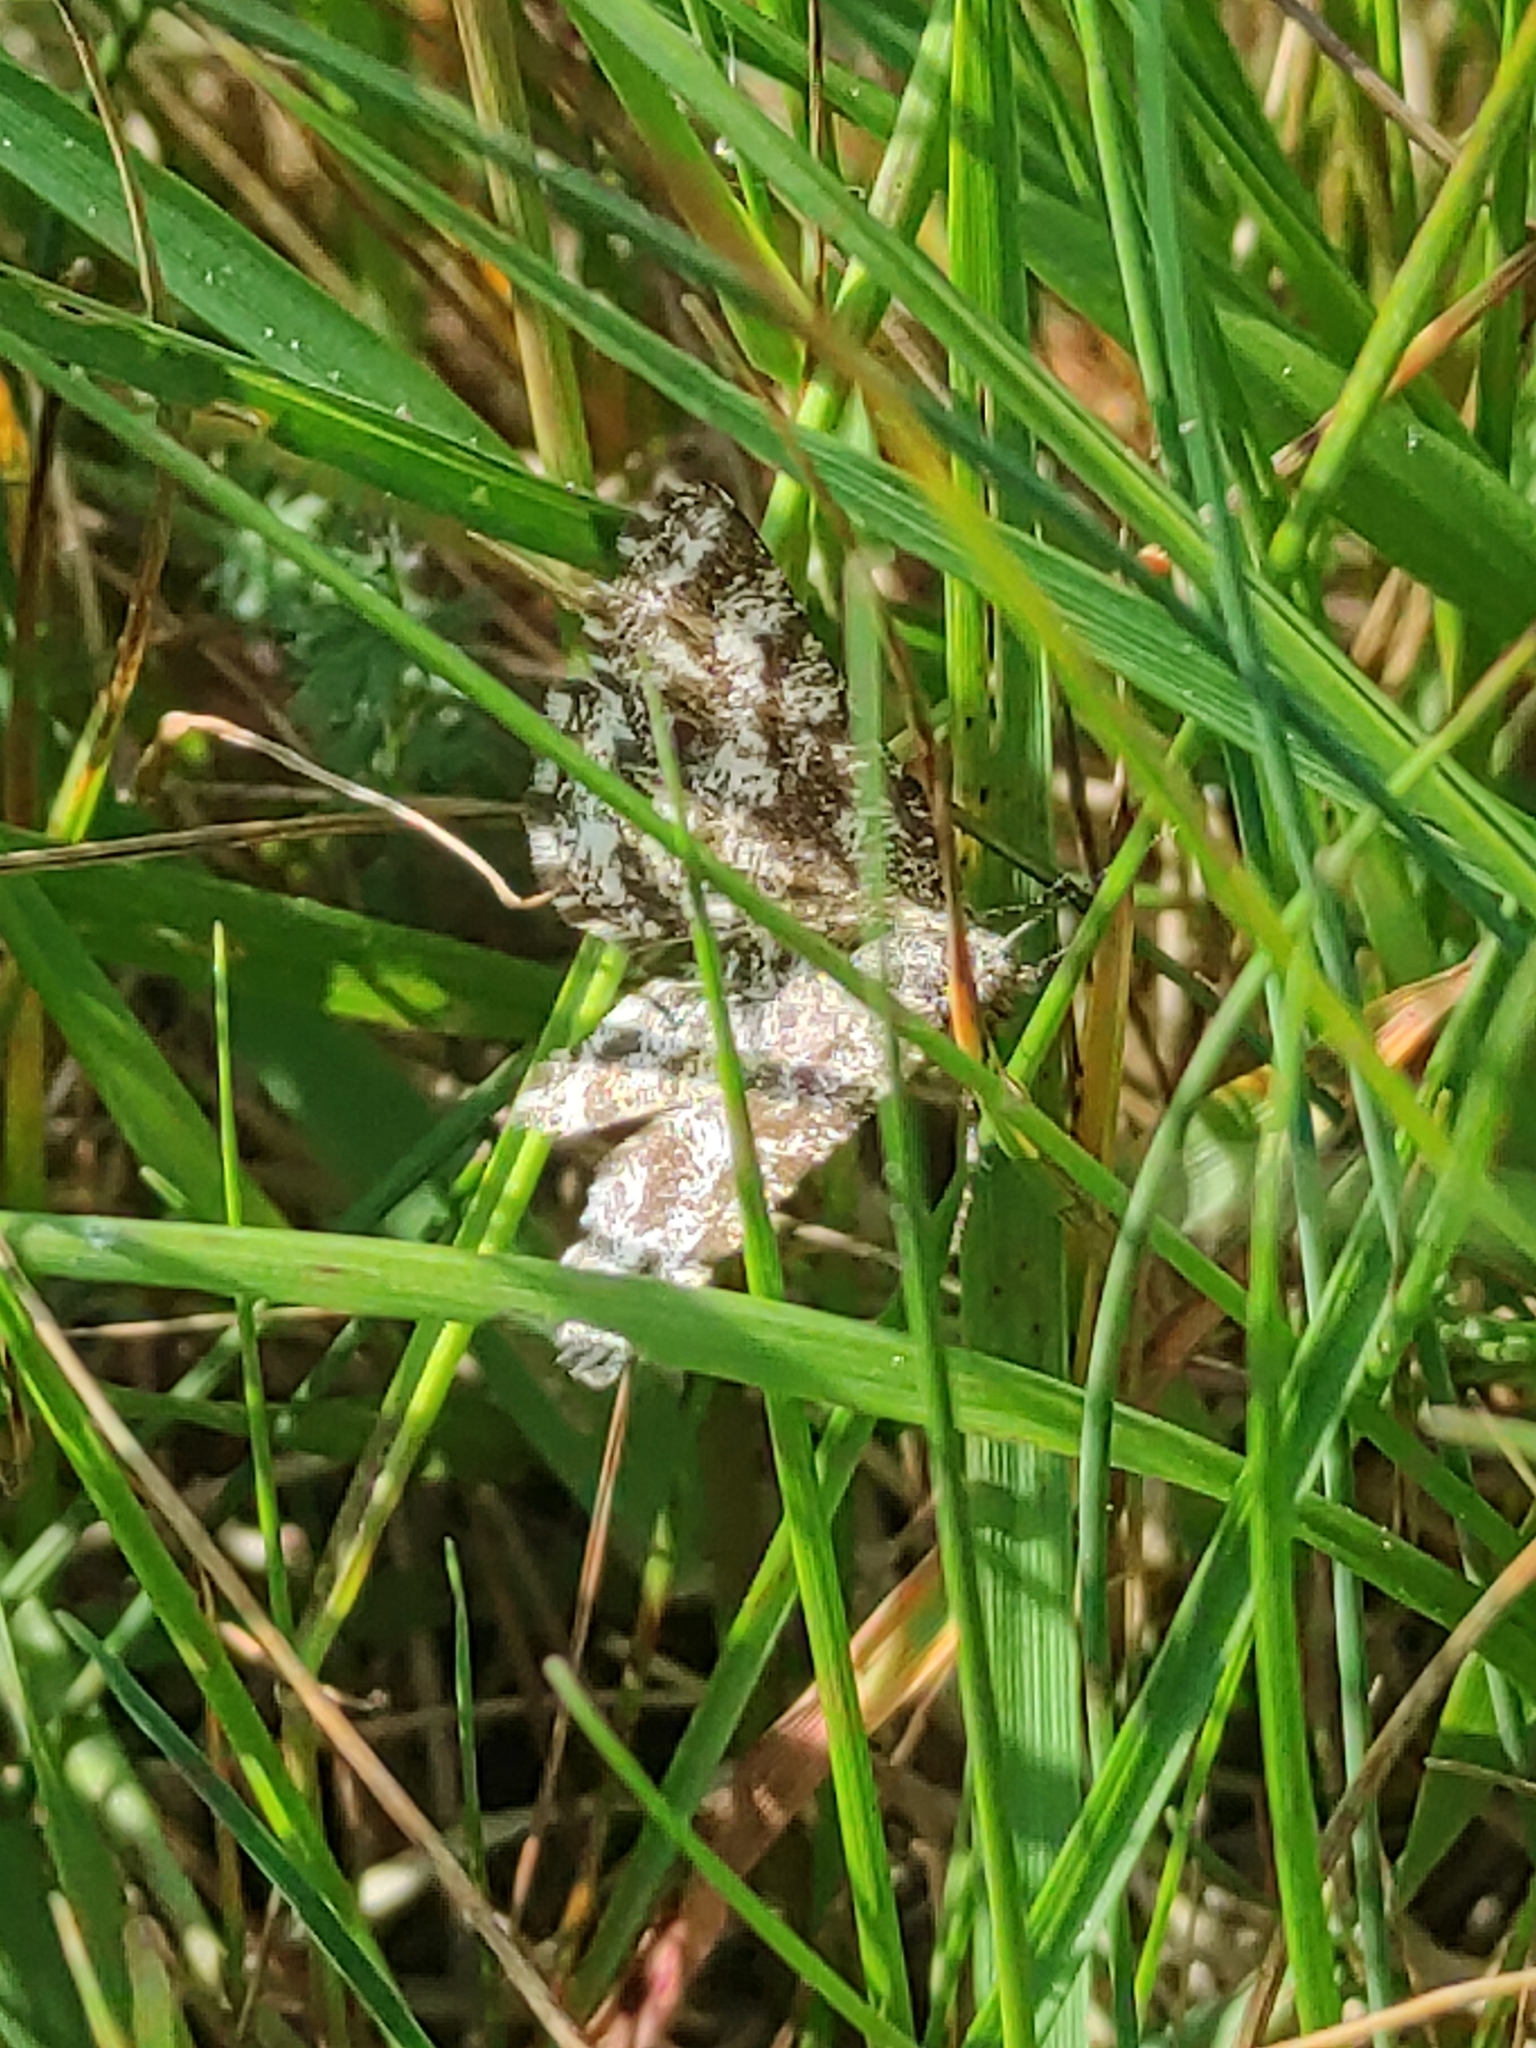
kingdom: Animalia
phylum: Arthropoda
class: Insecta
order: Lepidoptera
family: Geometridae
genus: Ematurga
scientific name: Ematurga atomaria
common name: Common heath
